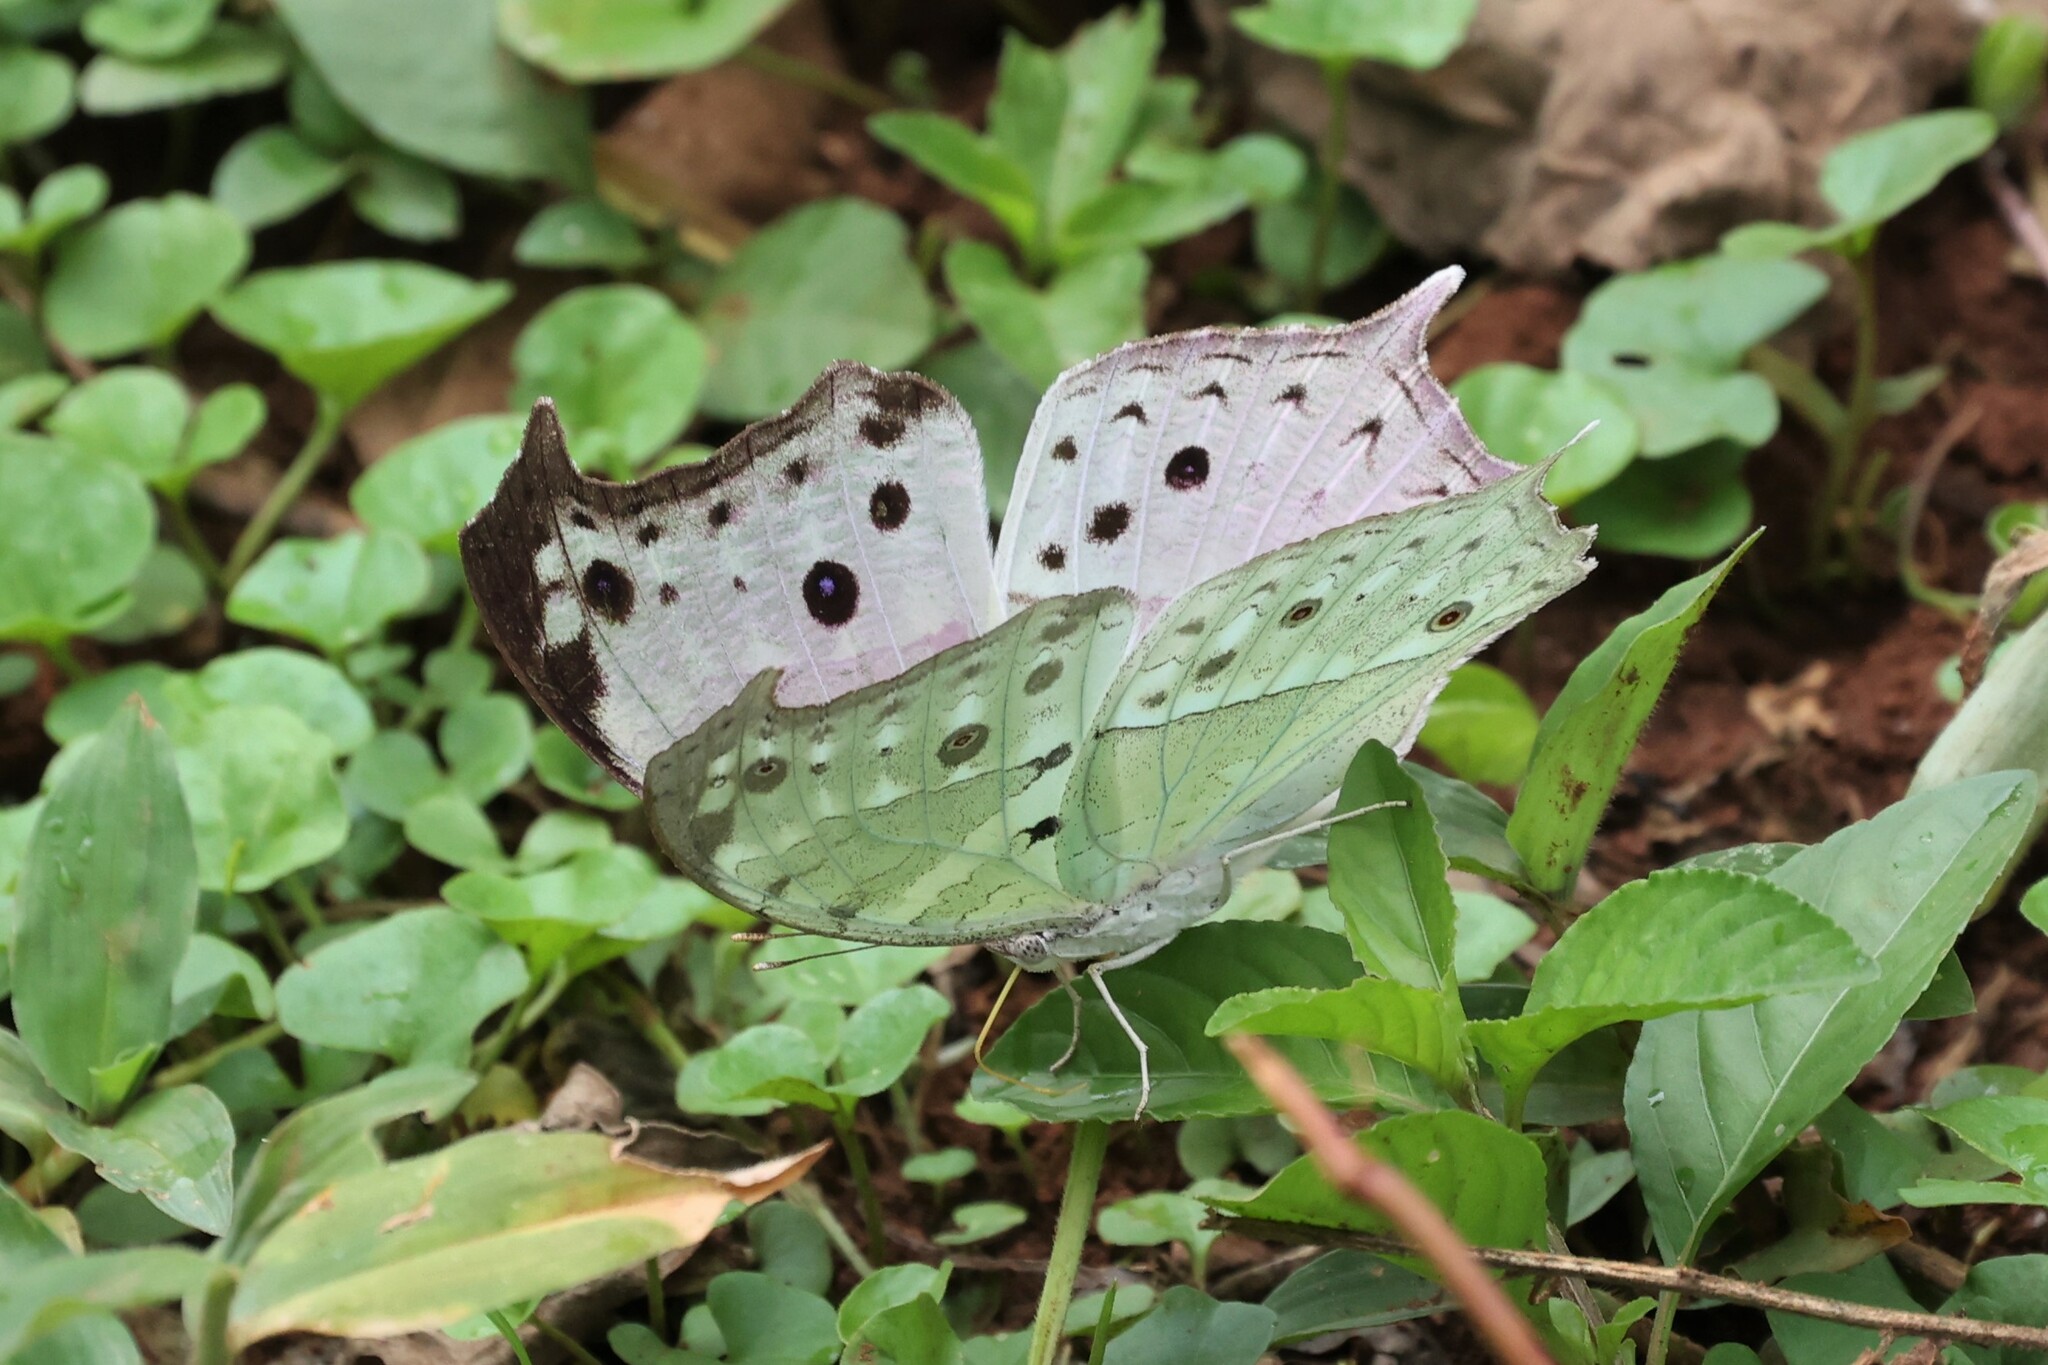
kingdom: Animalia
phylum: Arthropoda
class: Insecta
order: Lepidoptera
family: Nymphalidae
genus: Salamis
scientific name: Salamis Protogoniomorpha parhassus
